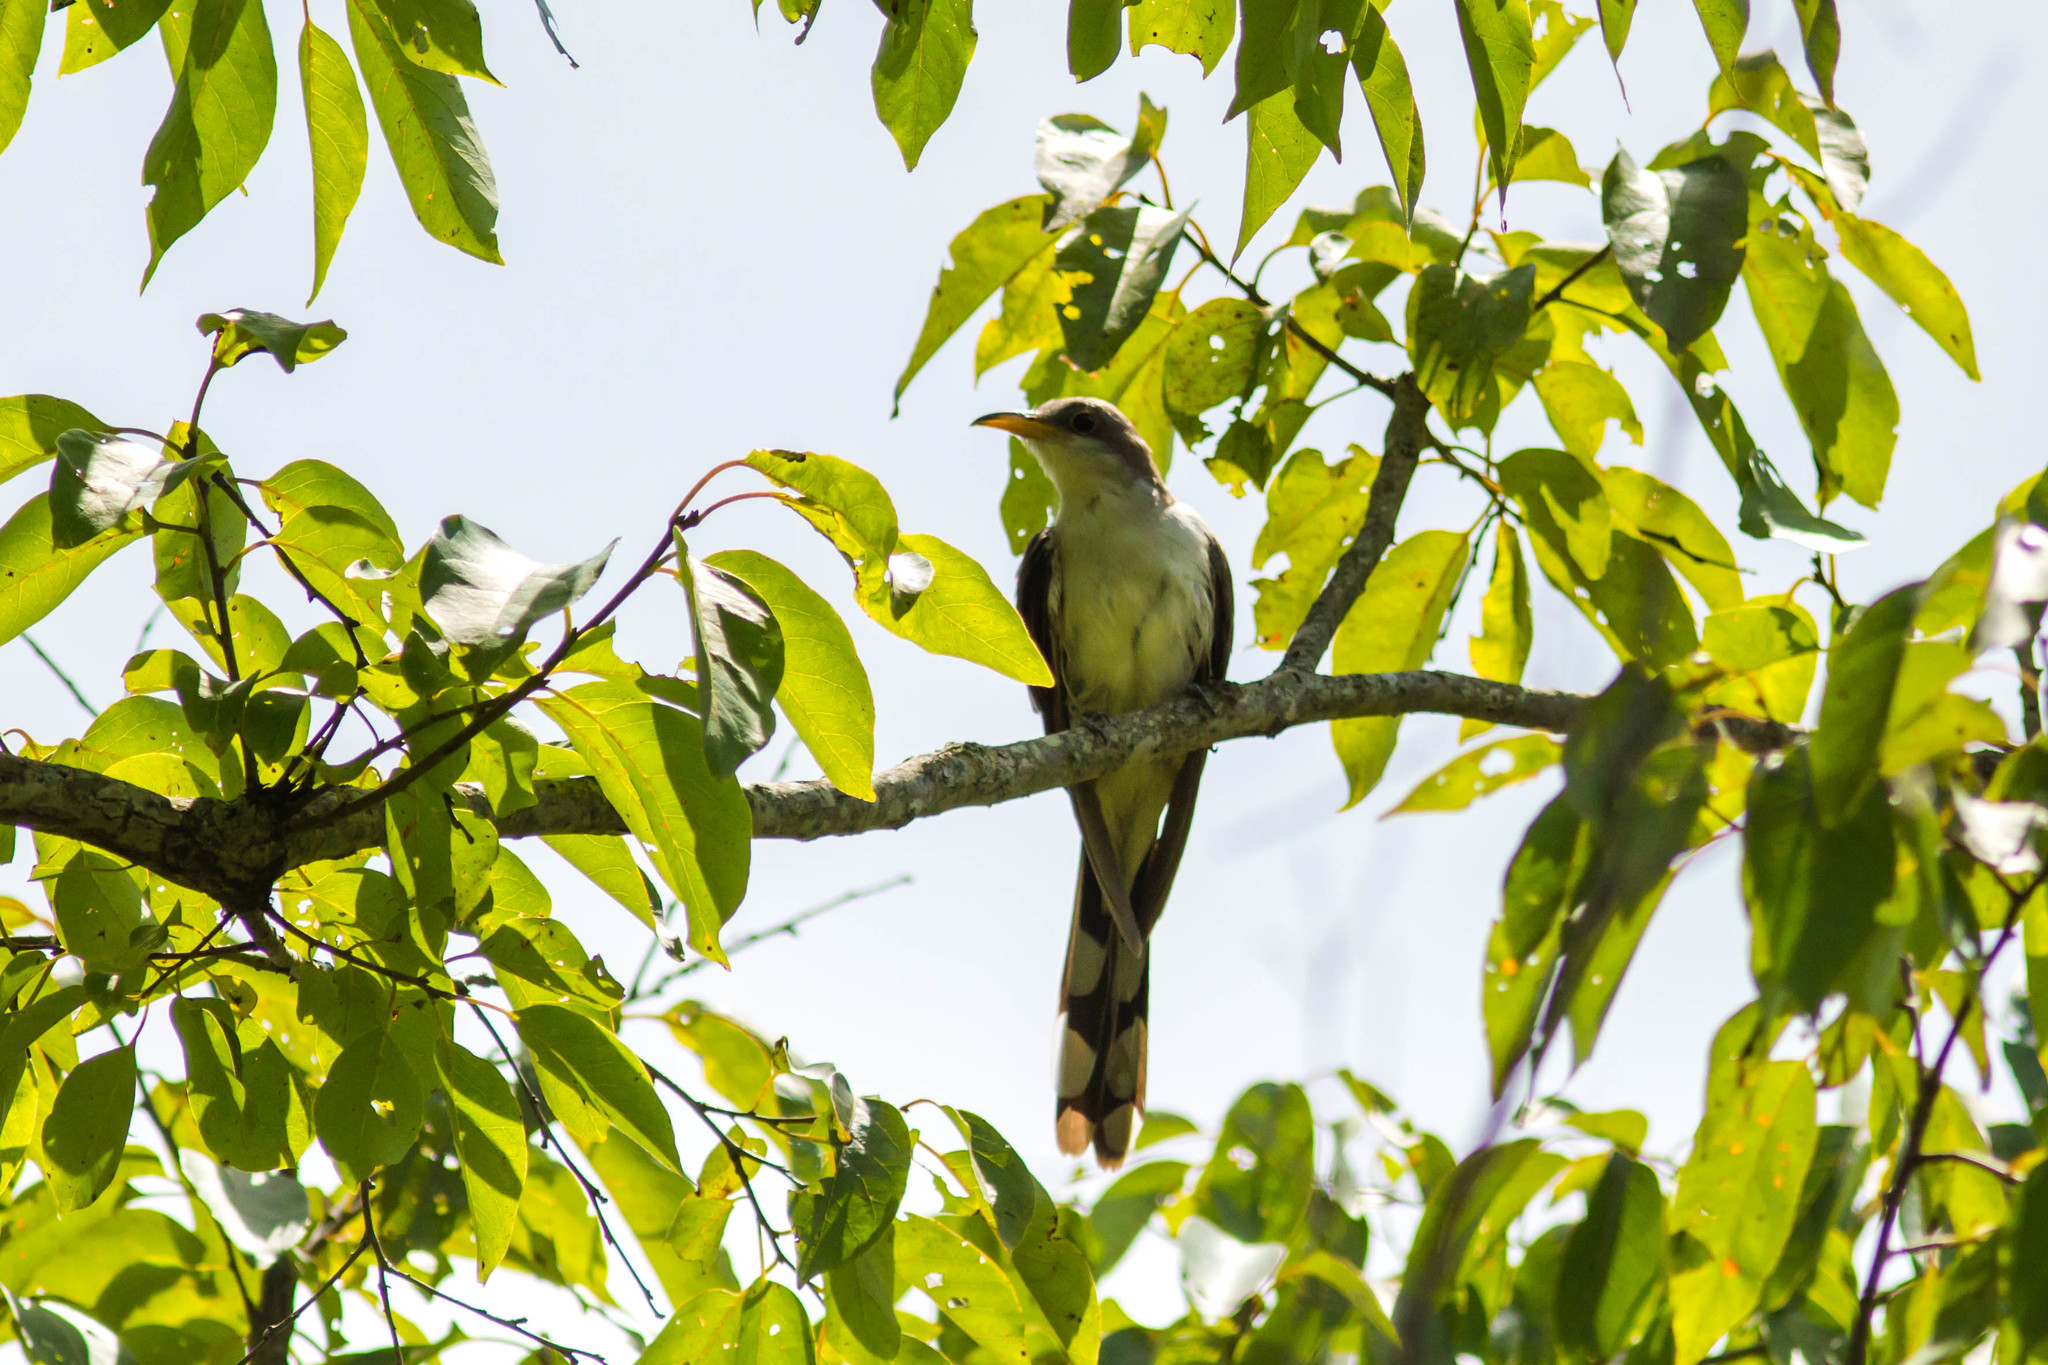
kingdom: Animalia
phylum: Chordata
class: Aves
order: Cuculiformes
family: Cuculidae
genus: Coccyzus
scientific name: Coccyzus americanus
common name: Yellow-billed cuckoo
